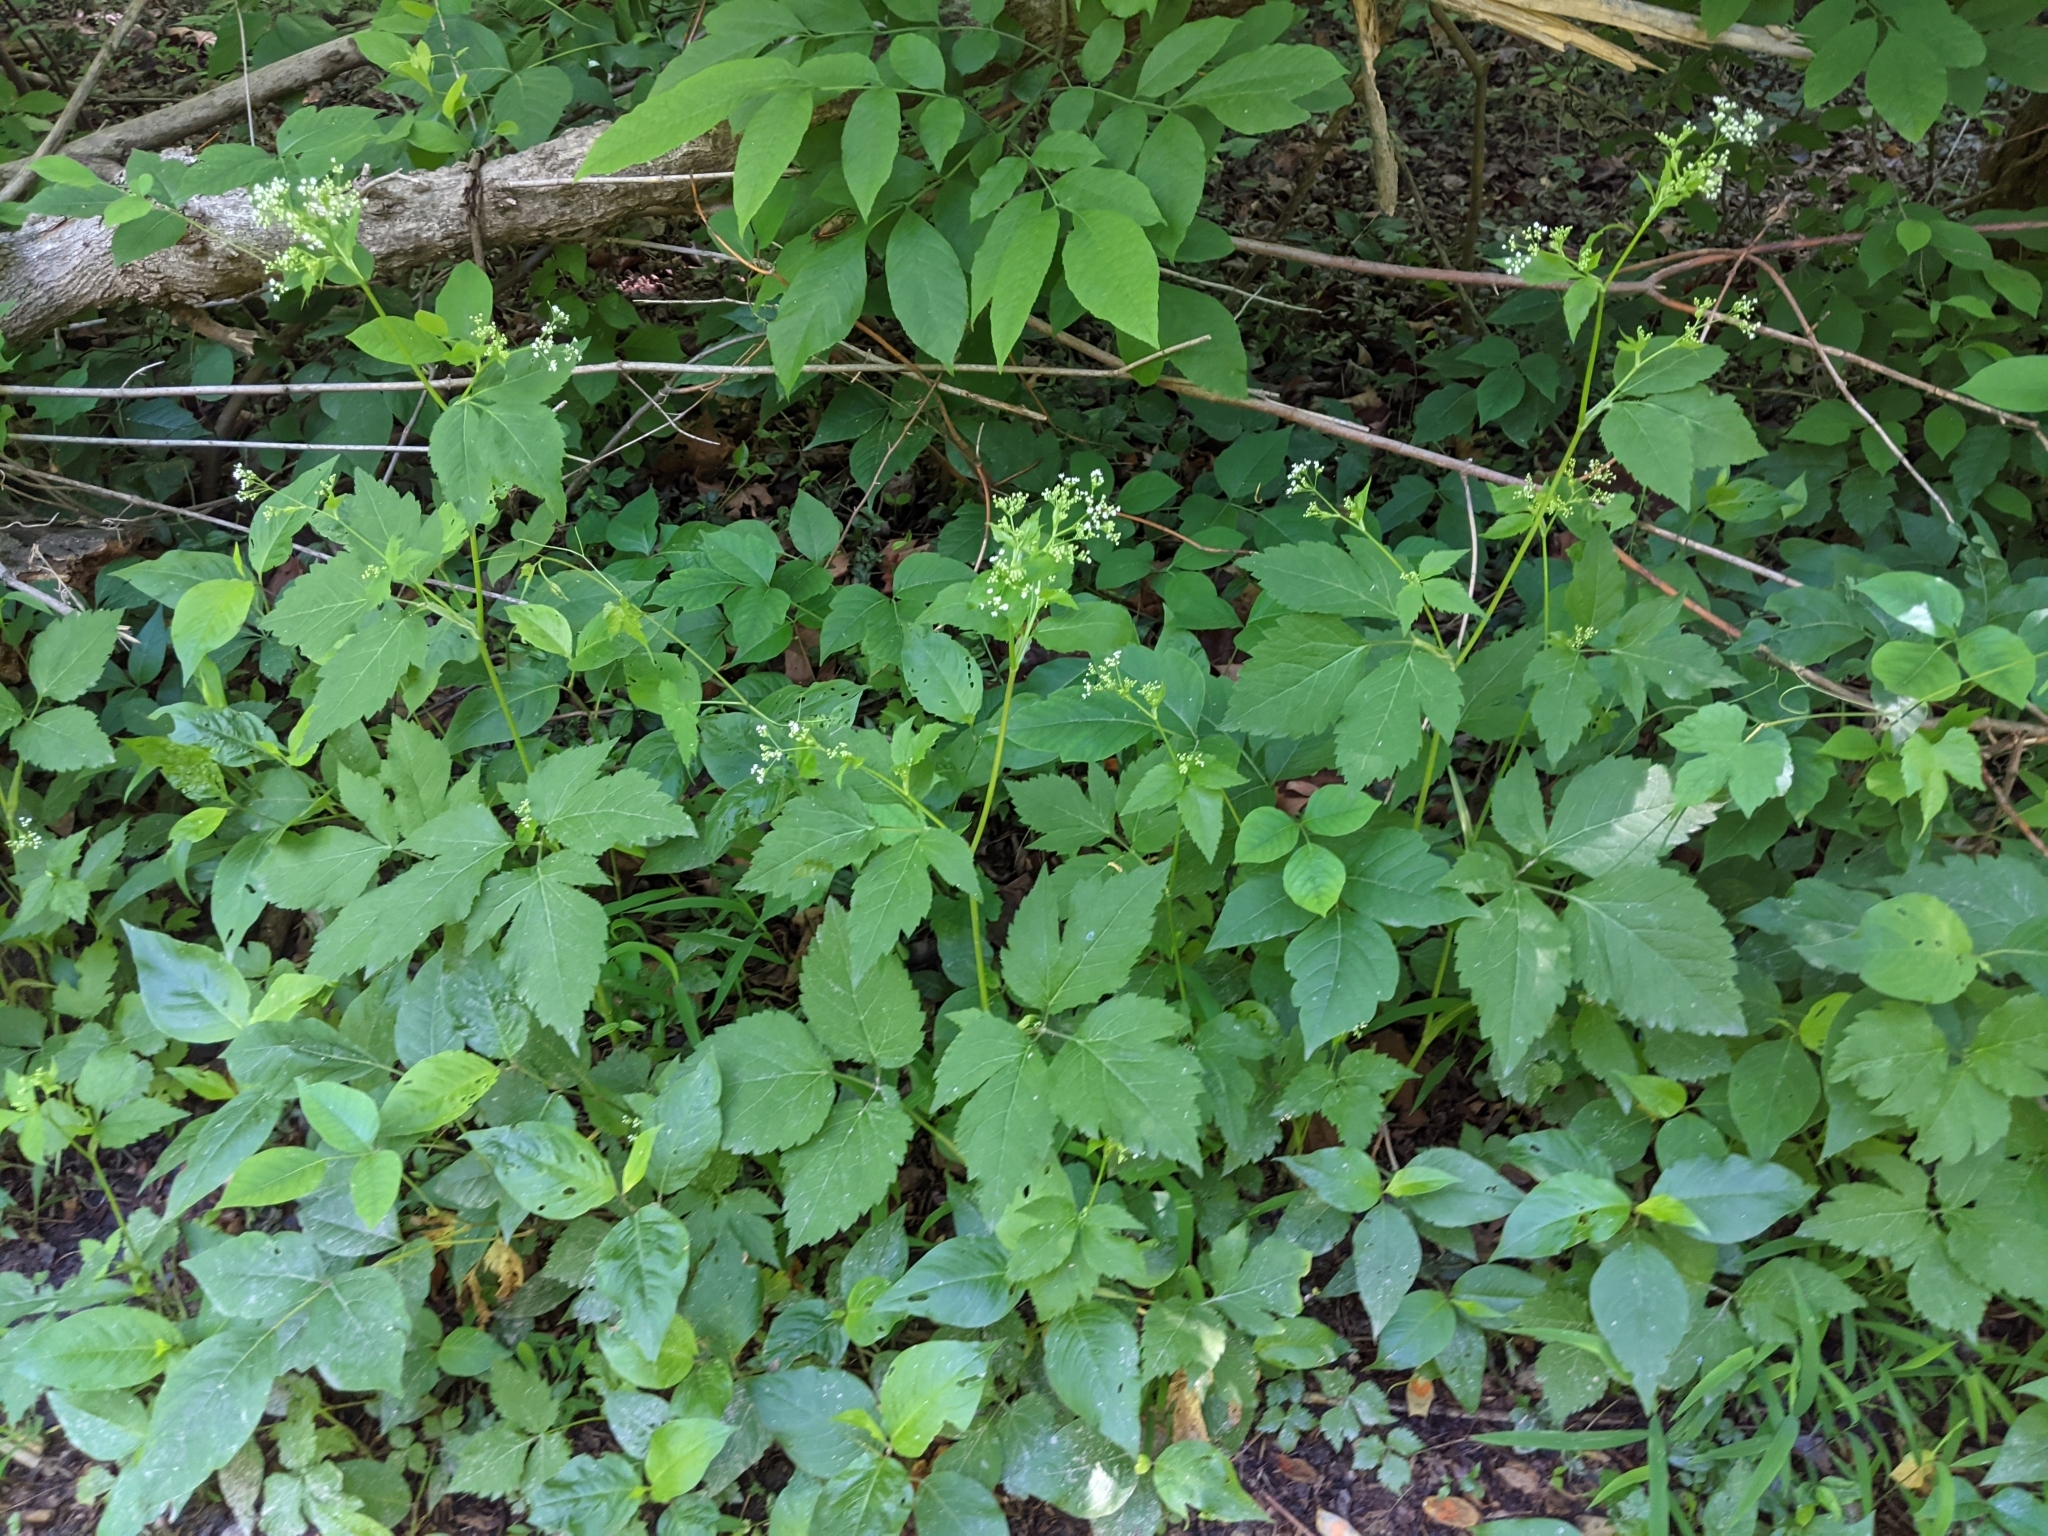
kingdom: Plantae
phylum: Tracheophyta
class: Magnoliopsida
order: Apiales
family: Apiaceae
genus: Cryptotaenia
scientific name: Cryptotaenia canadensis
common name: Honewort
